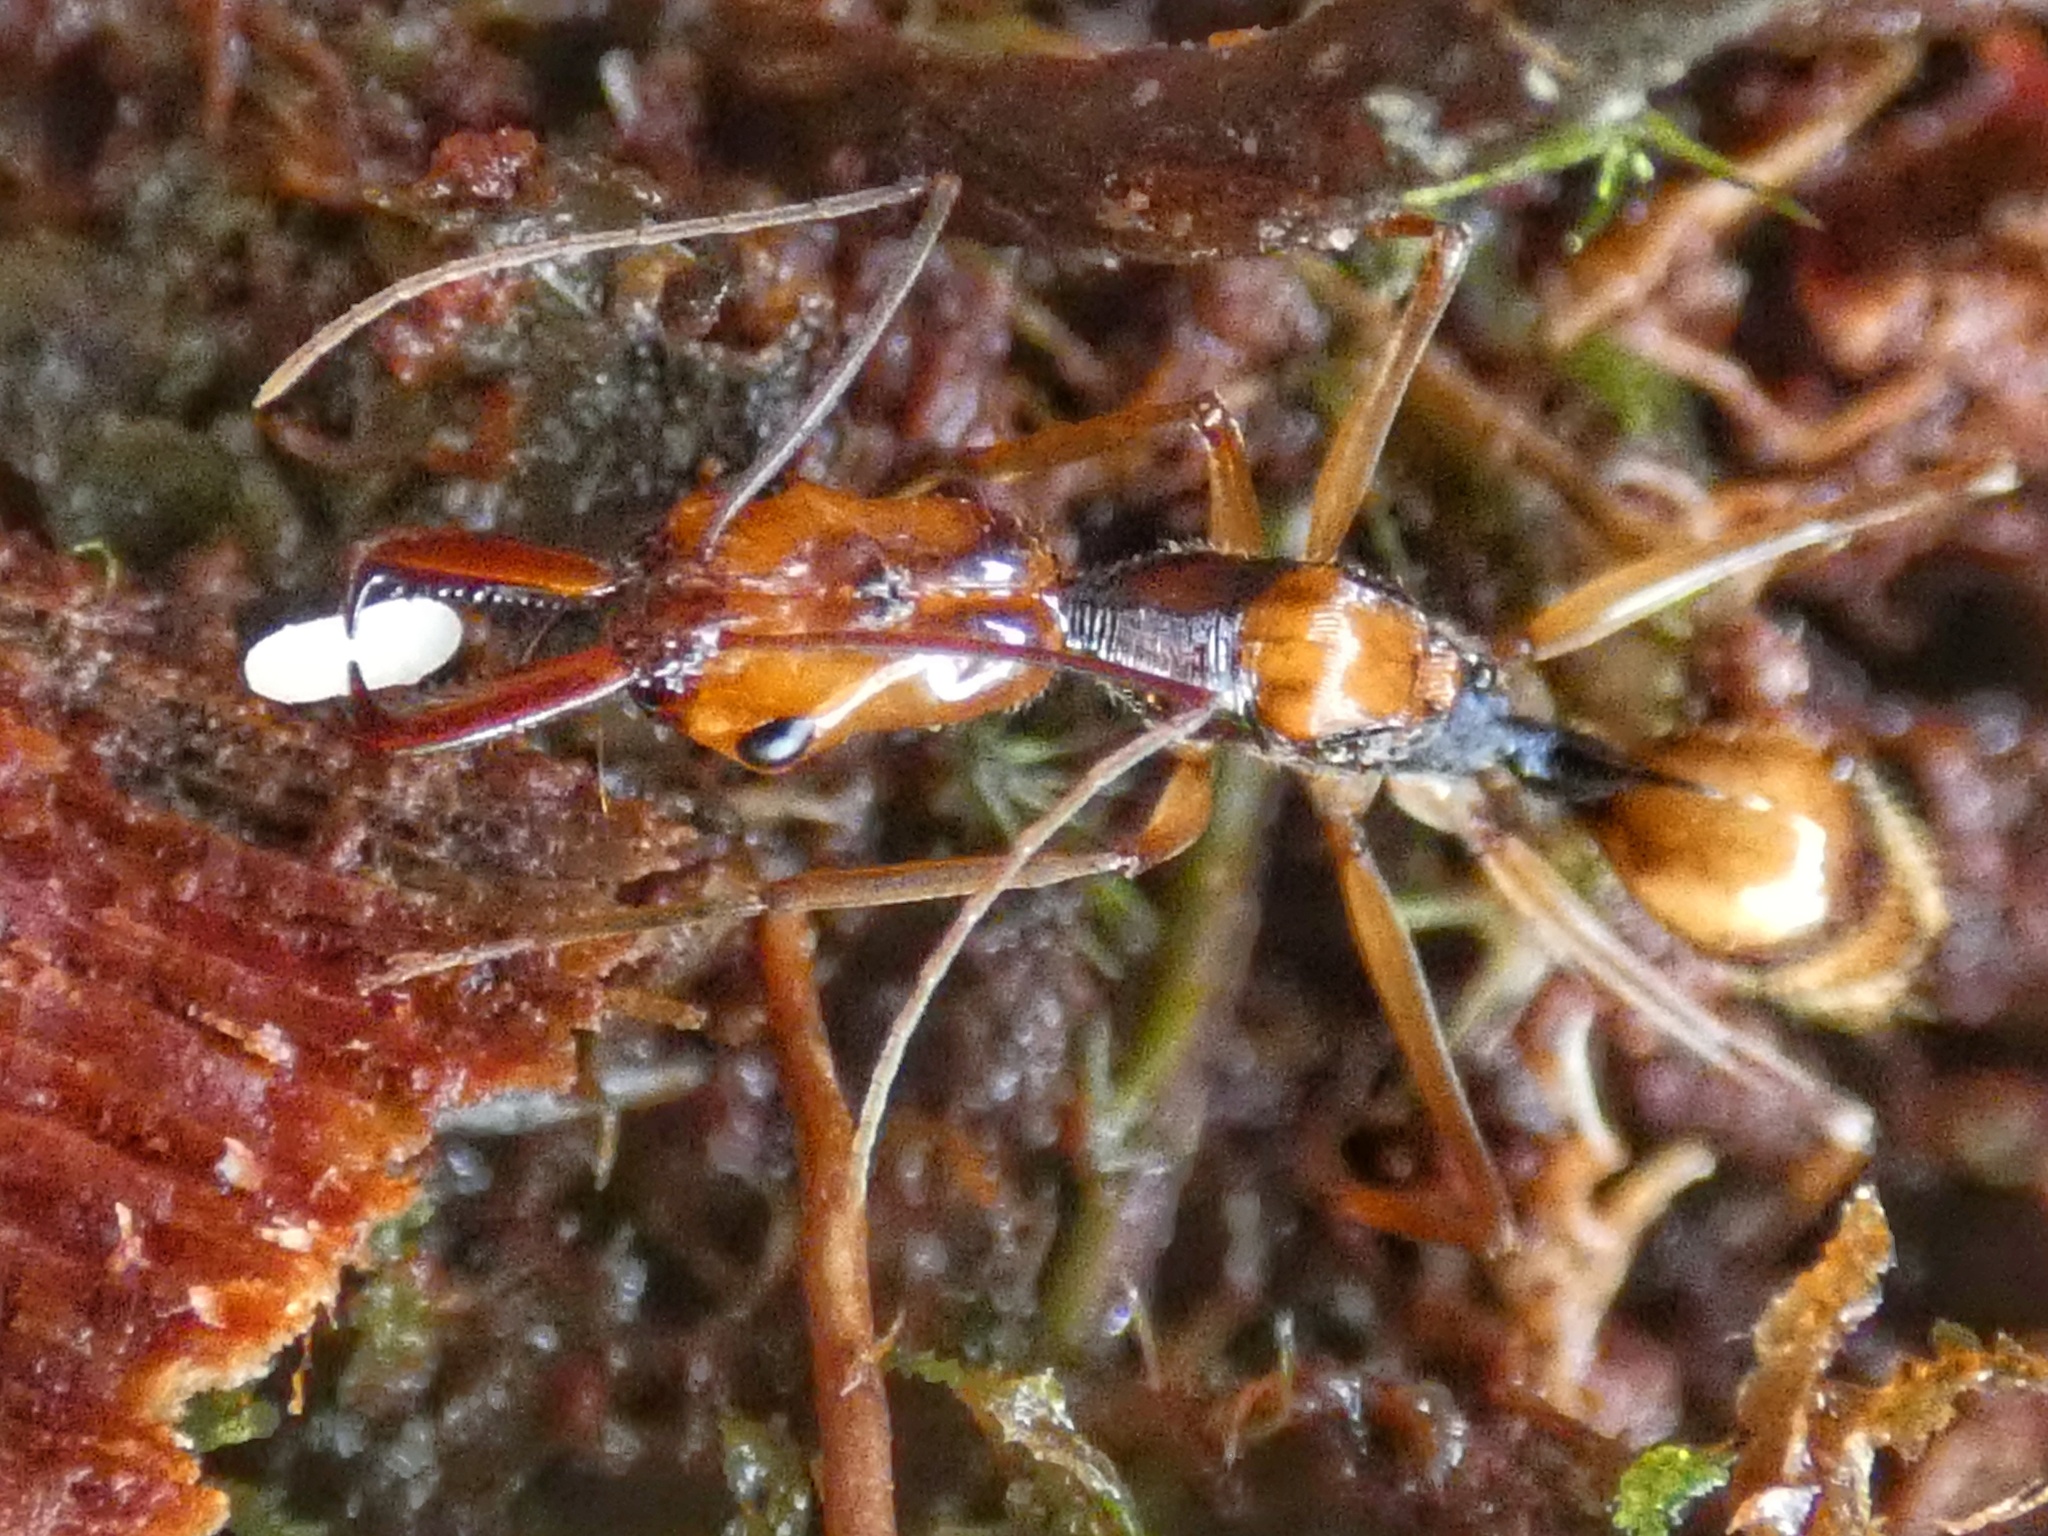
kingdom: Animalia
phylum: Arthropoda
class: Insecta
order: Hymenoptera
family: Formicidae
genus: Odontomachus
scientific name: Odontomachus hastatus
